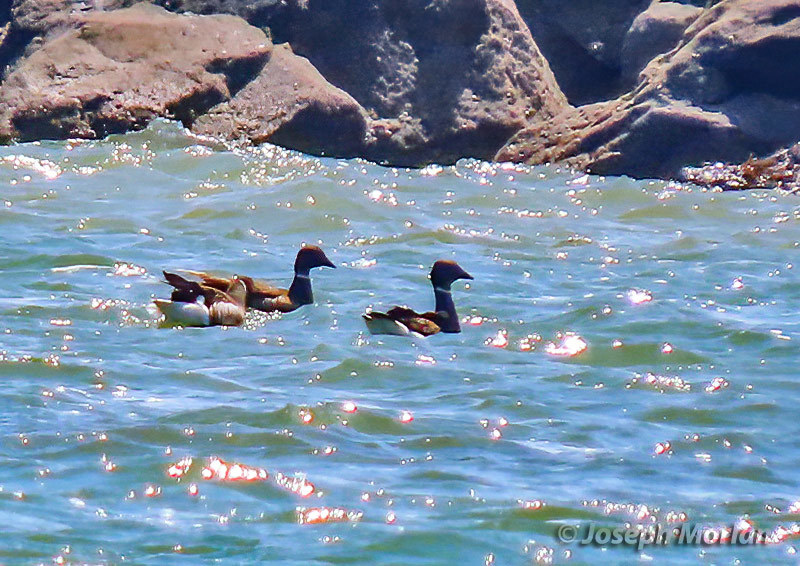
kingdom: Animalia
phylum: Chordata
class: Aves
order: Anseriformes
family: Anatidae
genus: Branta
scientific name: Branta bernicla
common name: Brant goose
